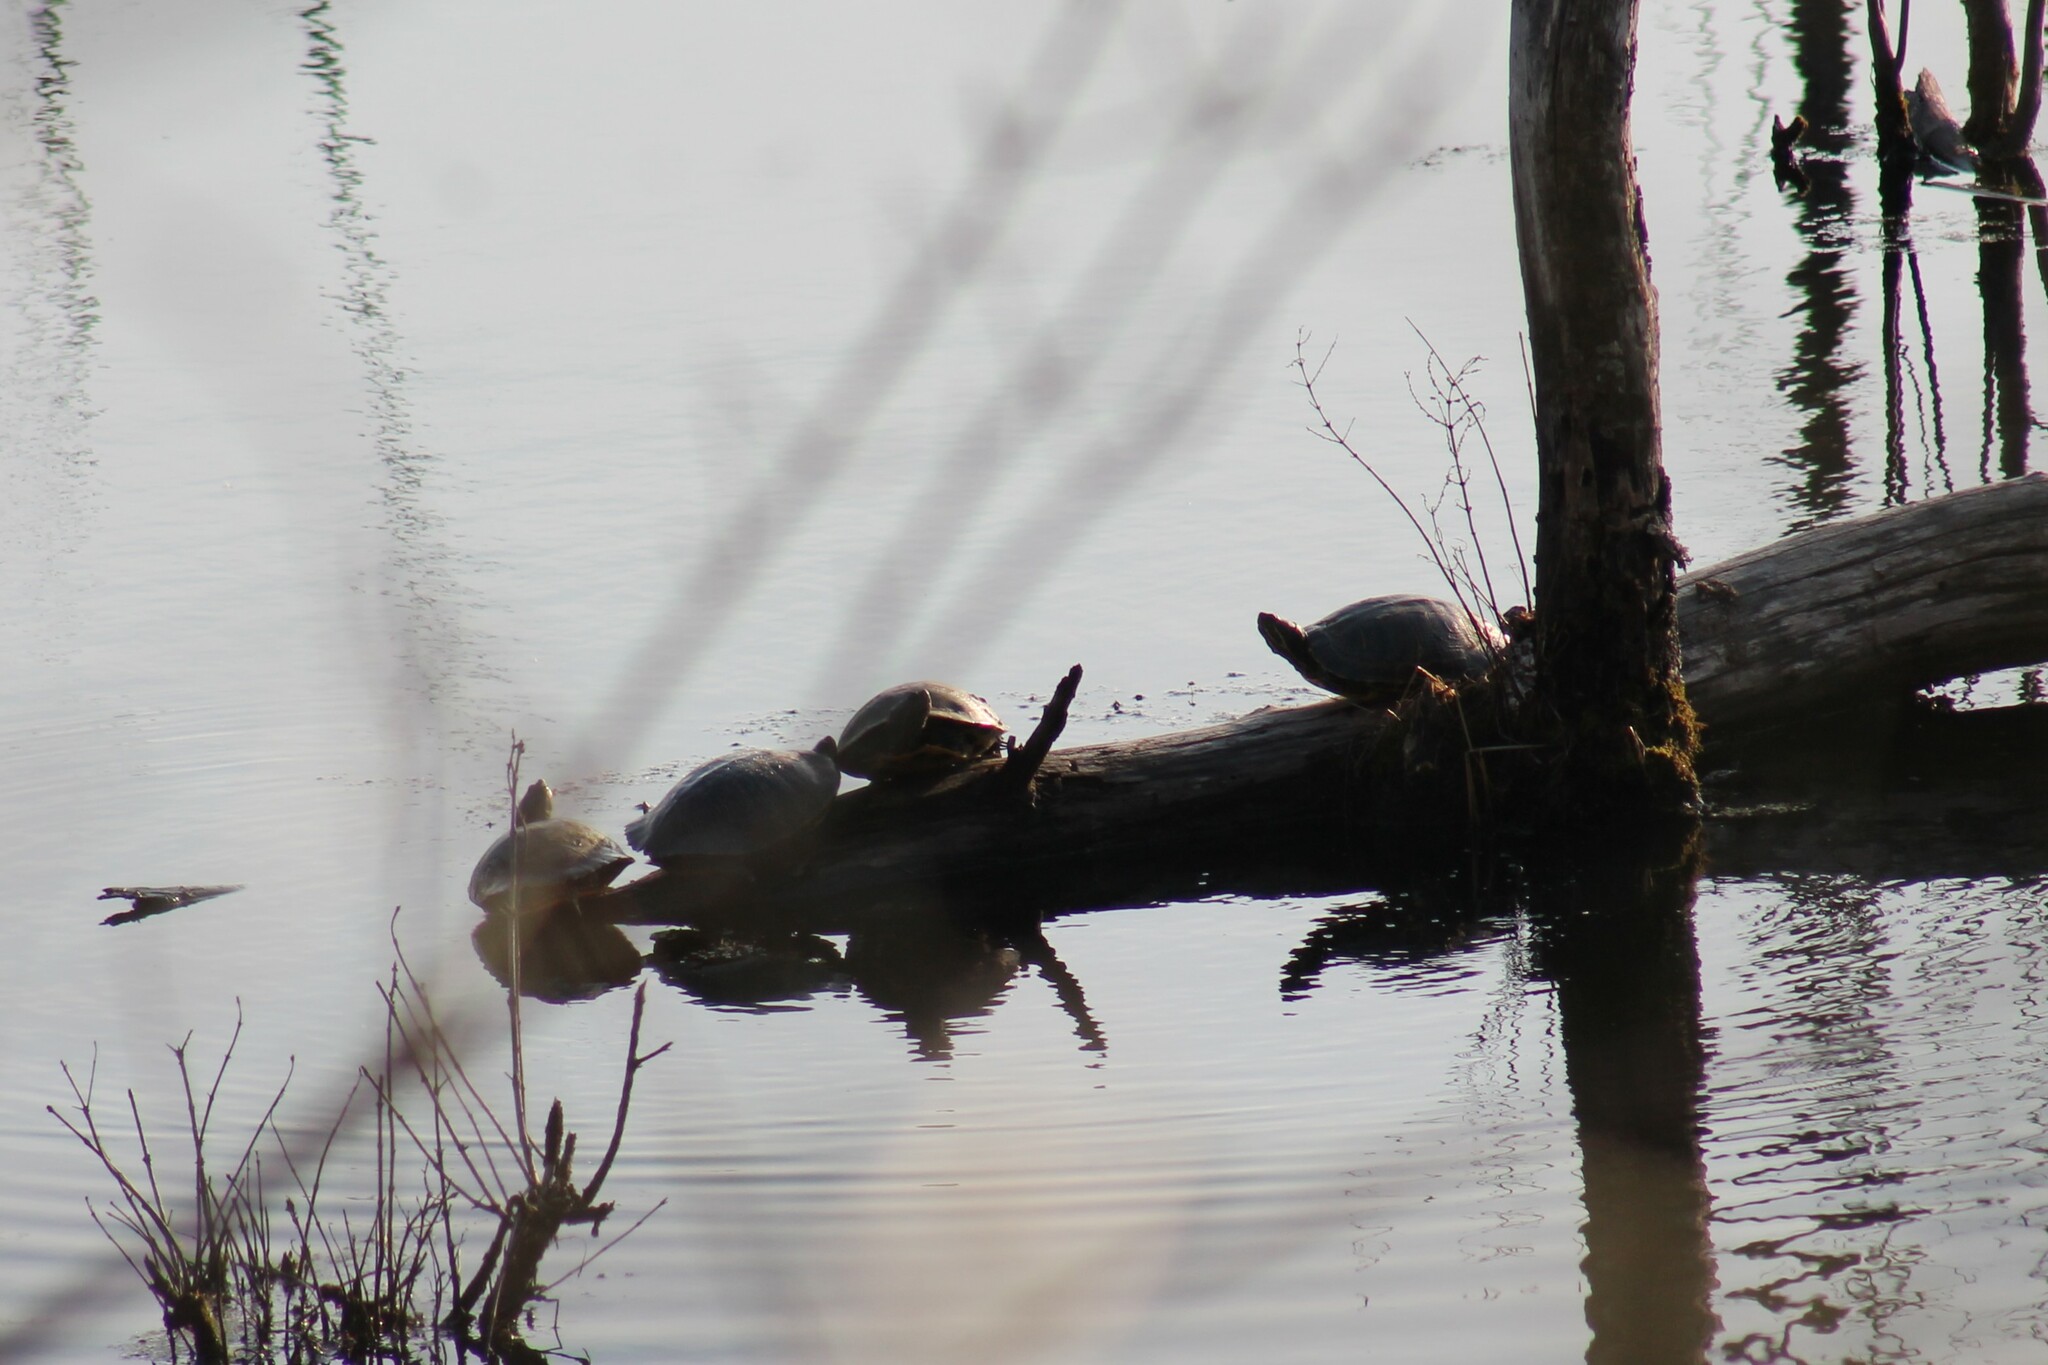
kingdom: Animalia
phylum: Chordata
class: Testudines
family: Emydidae
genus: Trachemys
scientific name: Trachemys scripta
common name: Slider
